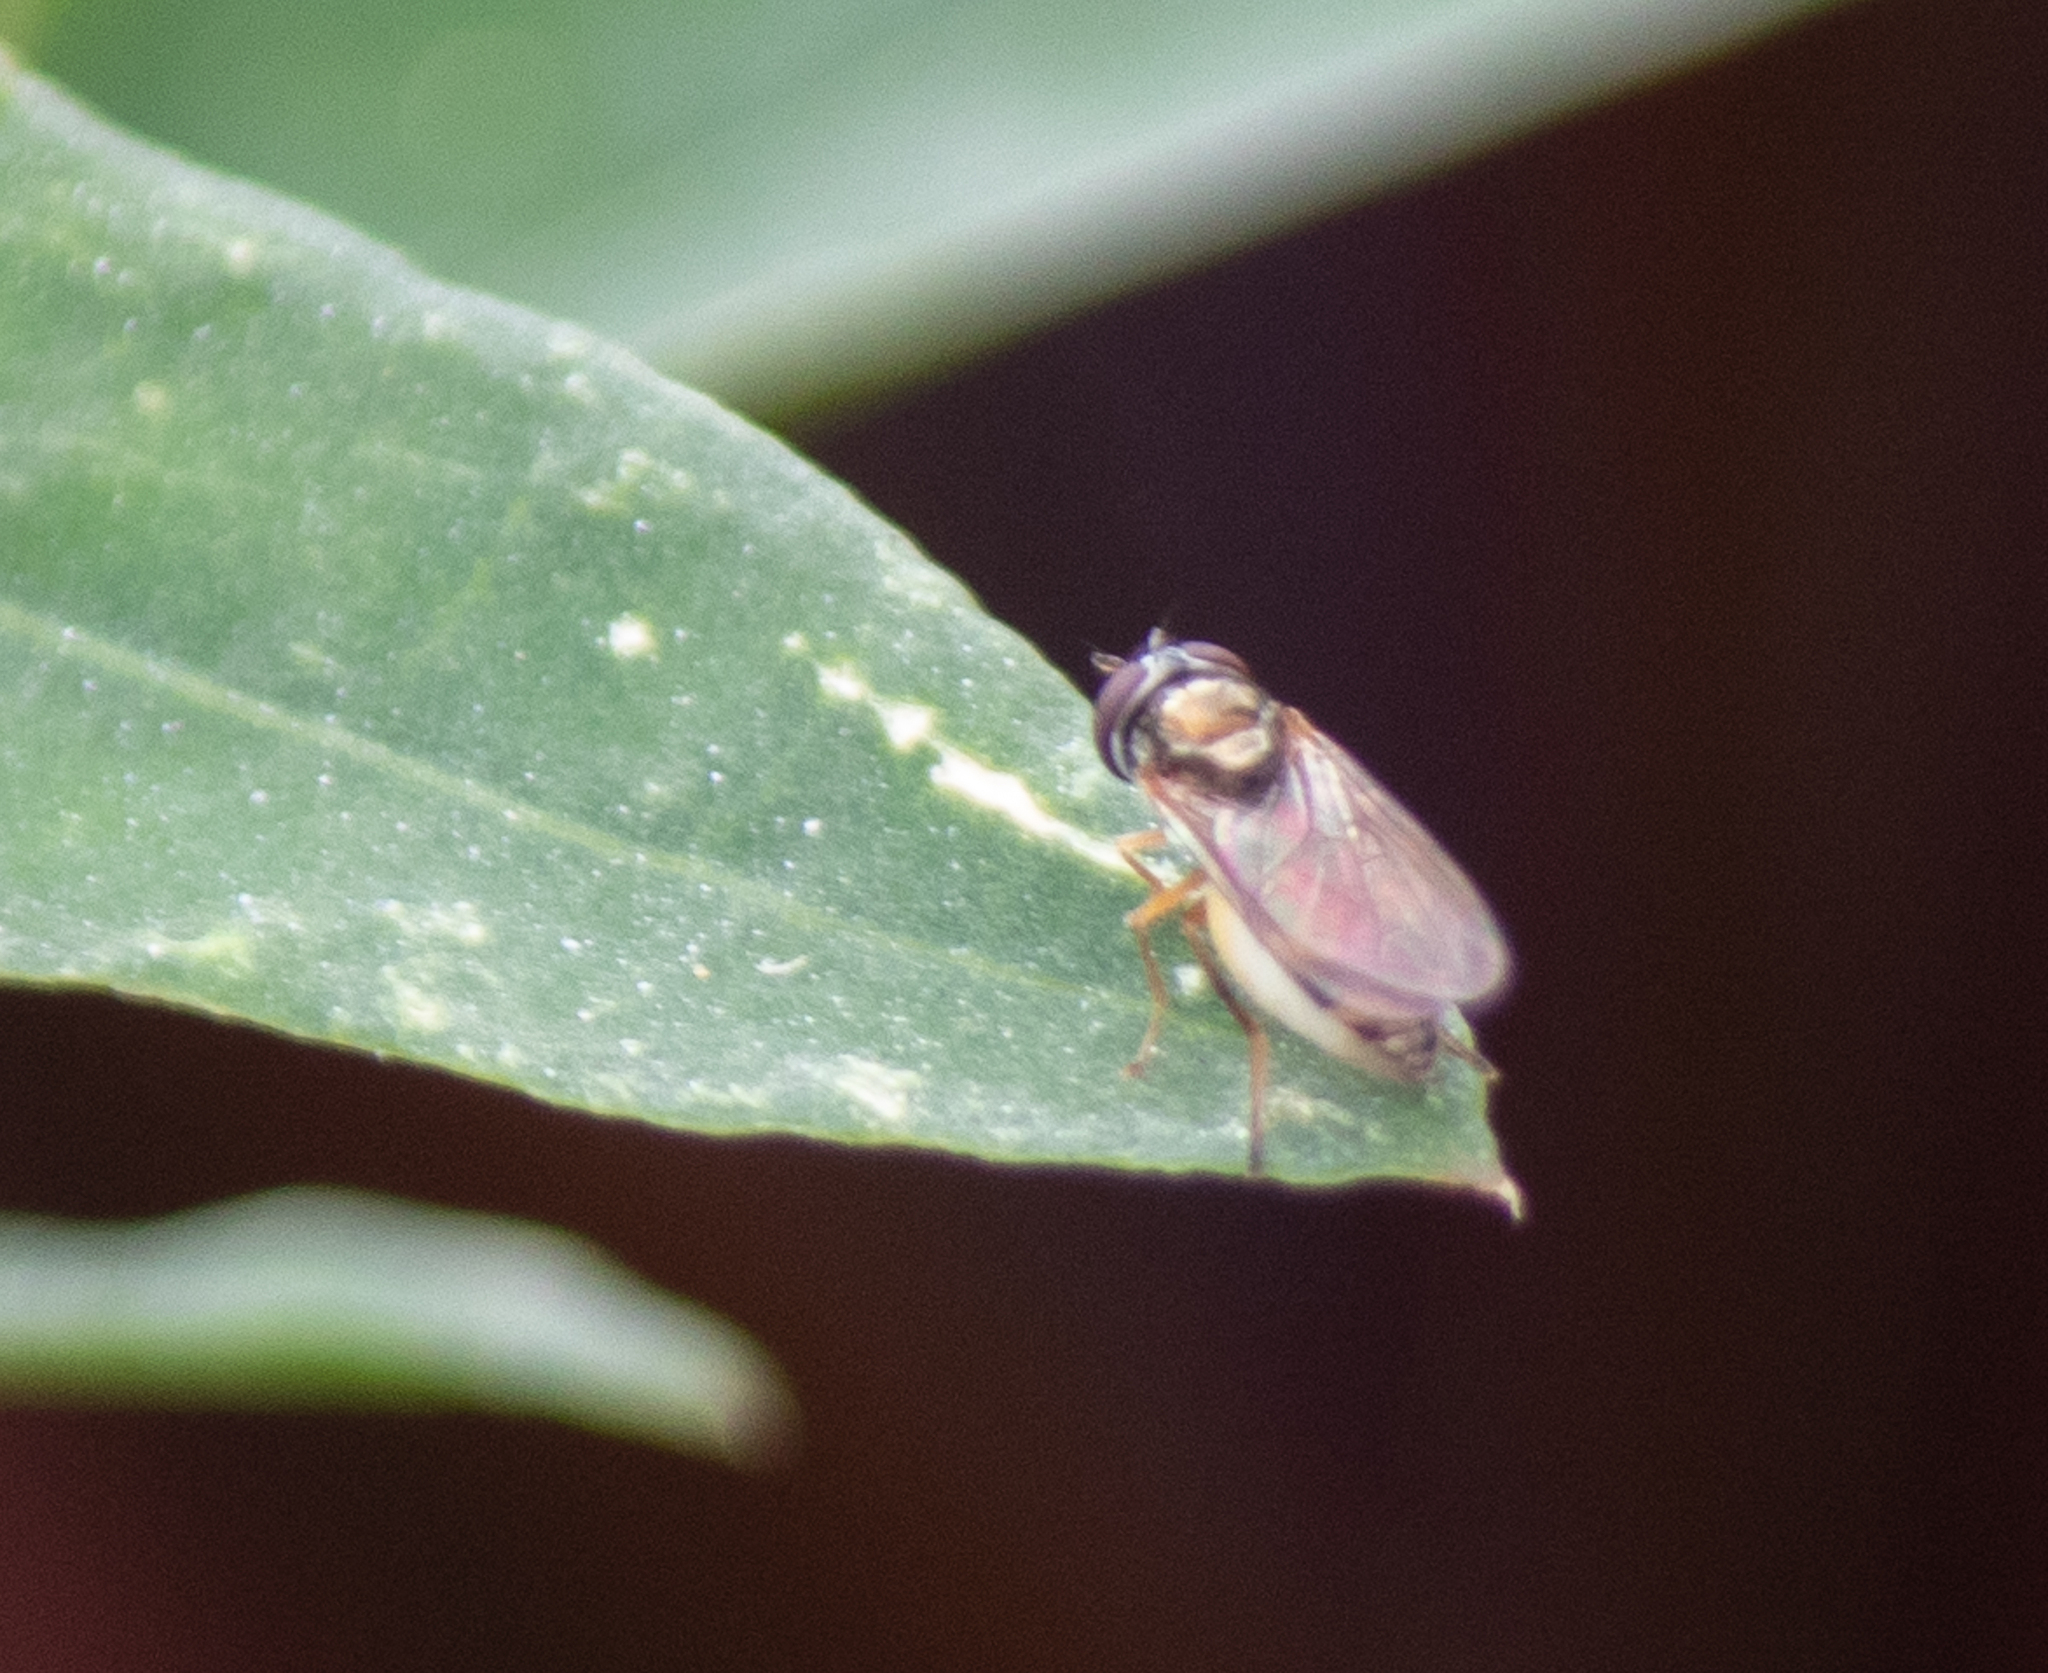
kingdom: Animalia
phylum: Arthropoda
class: Insecta
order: Diptera
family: Syrphidae
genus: Melanostoma
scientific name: Melanostoma mellina
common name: Hover fly
